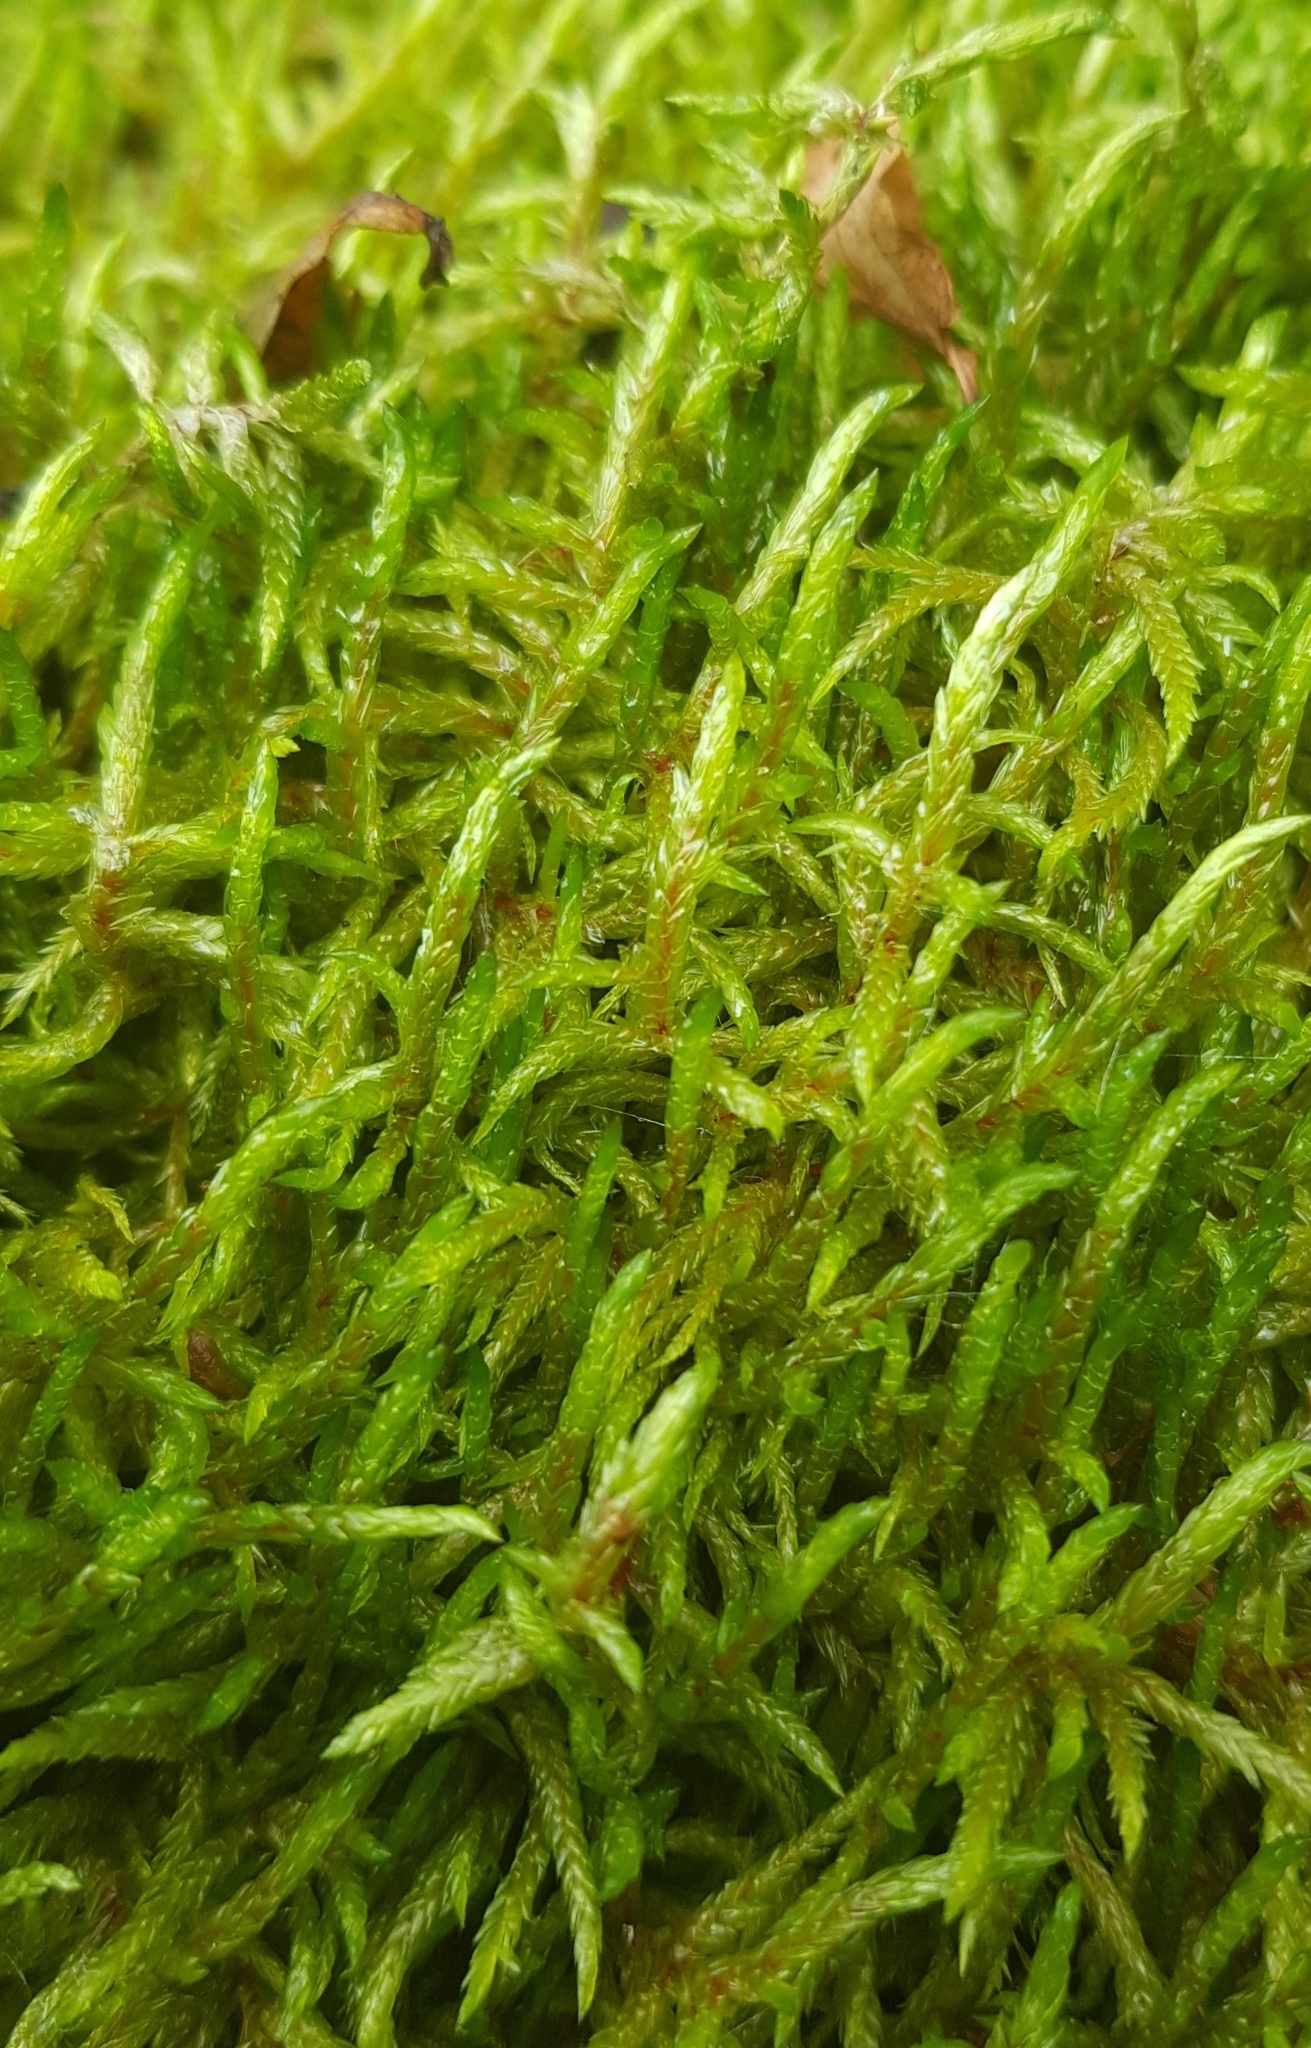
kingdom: Plantae
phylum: Bryophyta
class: Bryopsida
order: Hypnales
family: Hylocomiaceae
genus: Pleurozium
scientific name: Pleurozium schreberi
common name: Red-stemmed feather moss
